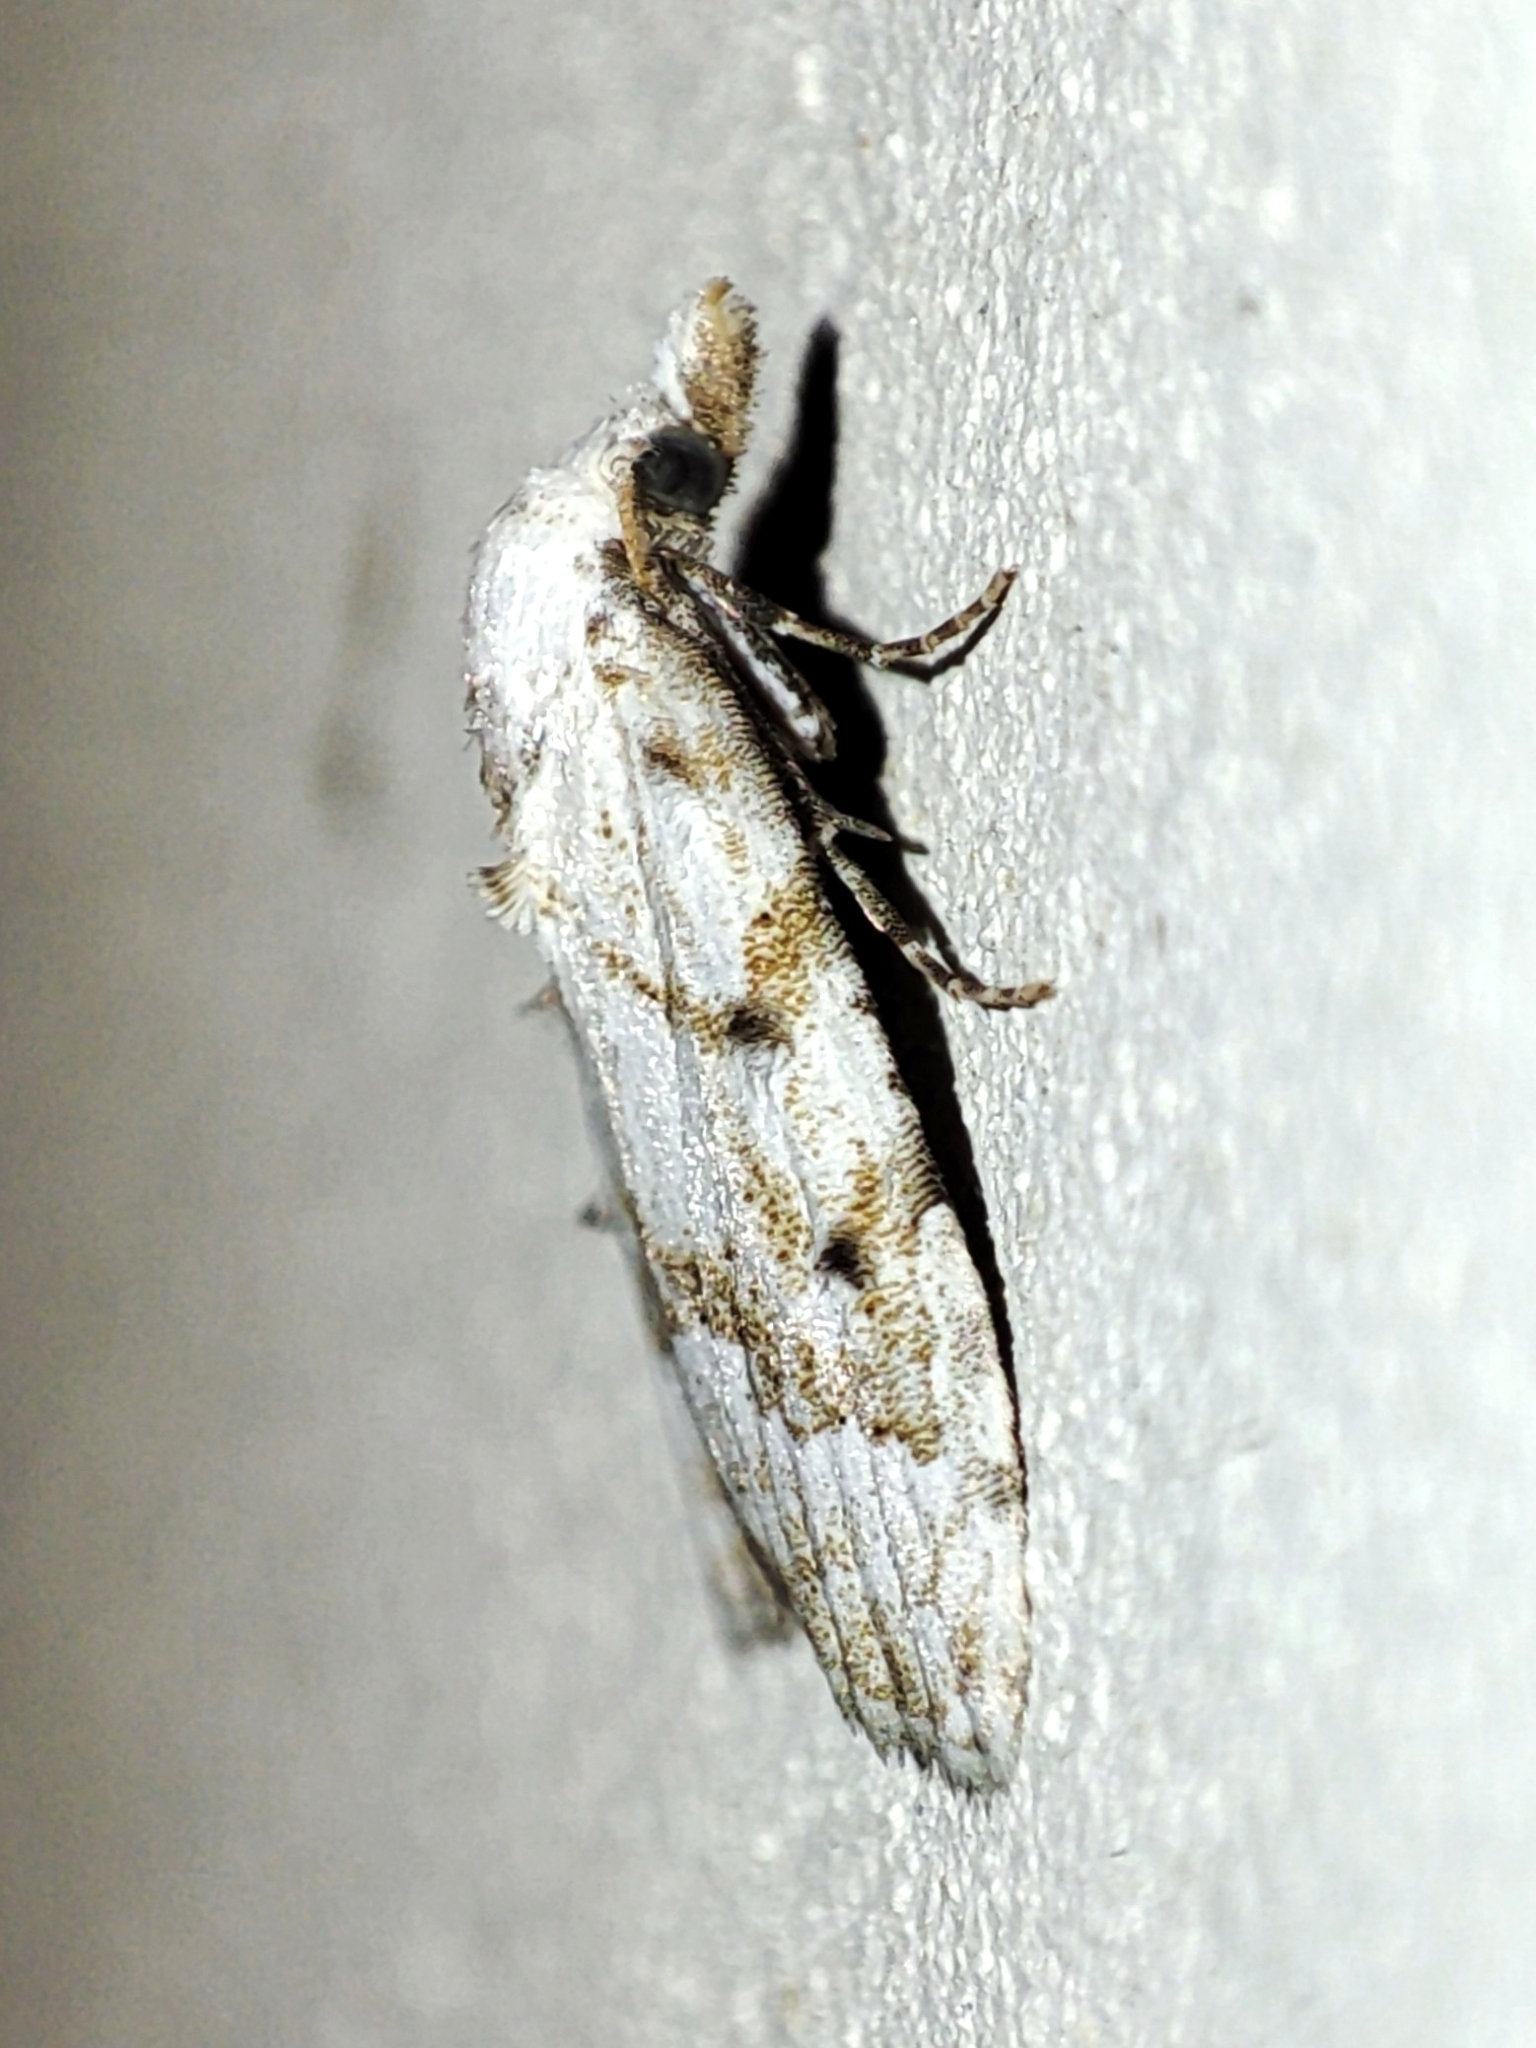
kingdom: Animalia
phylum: Arthropoda
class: Insecta
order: Lepidoptera
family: Nolidae
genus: Nola
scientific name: Nola aerugula
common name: Scarce black arches
